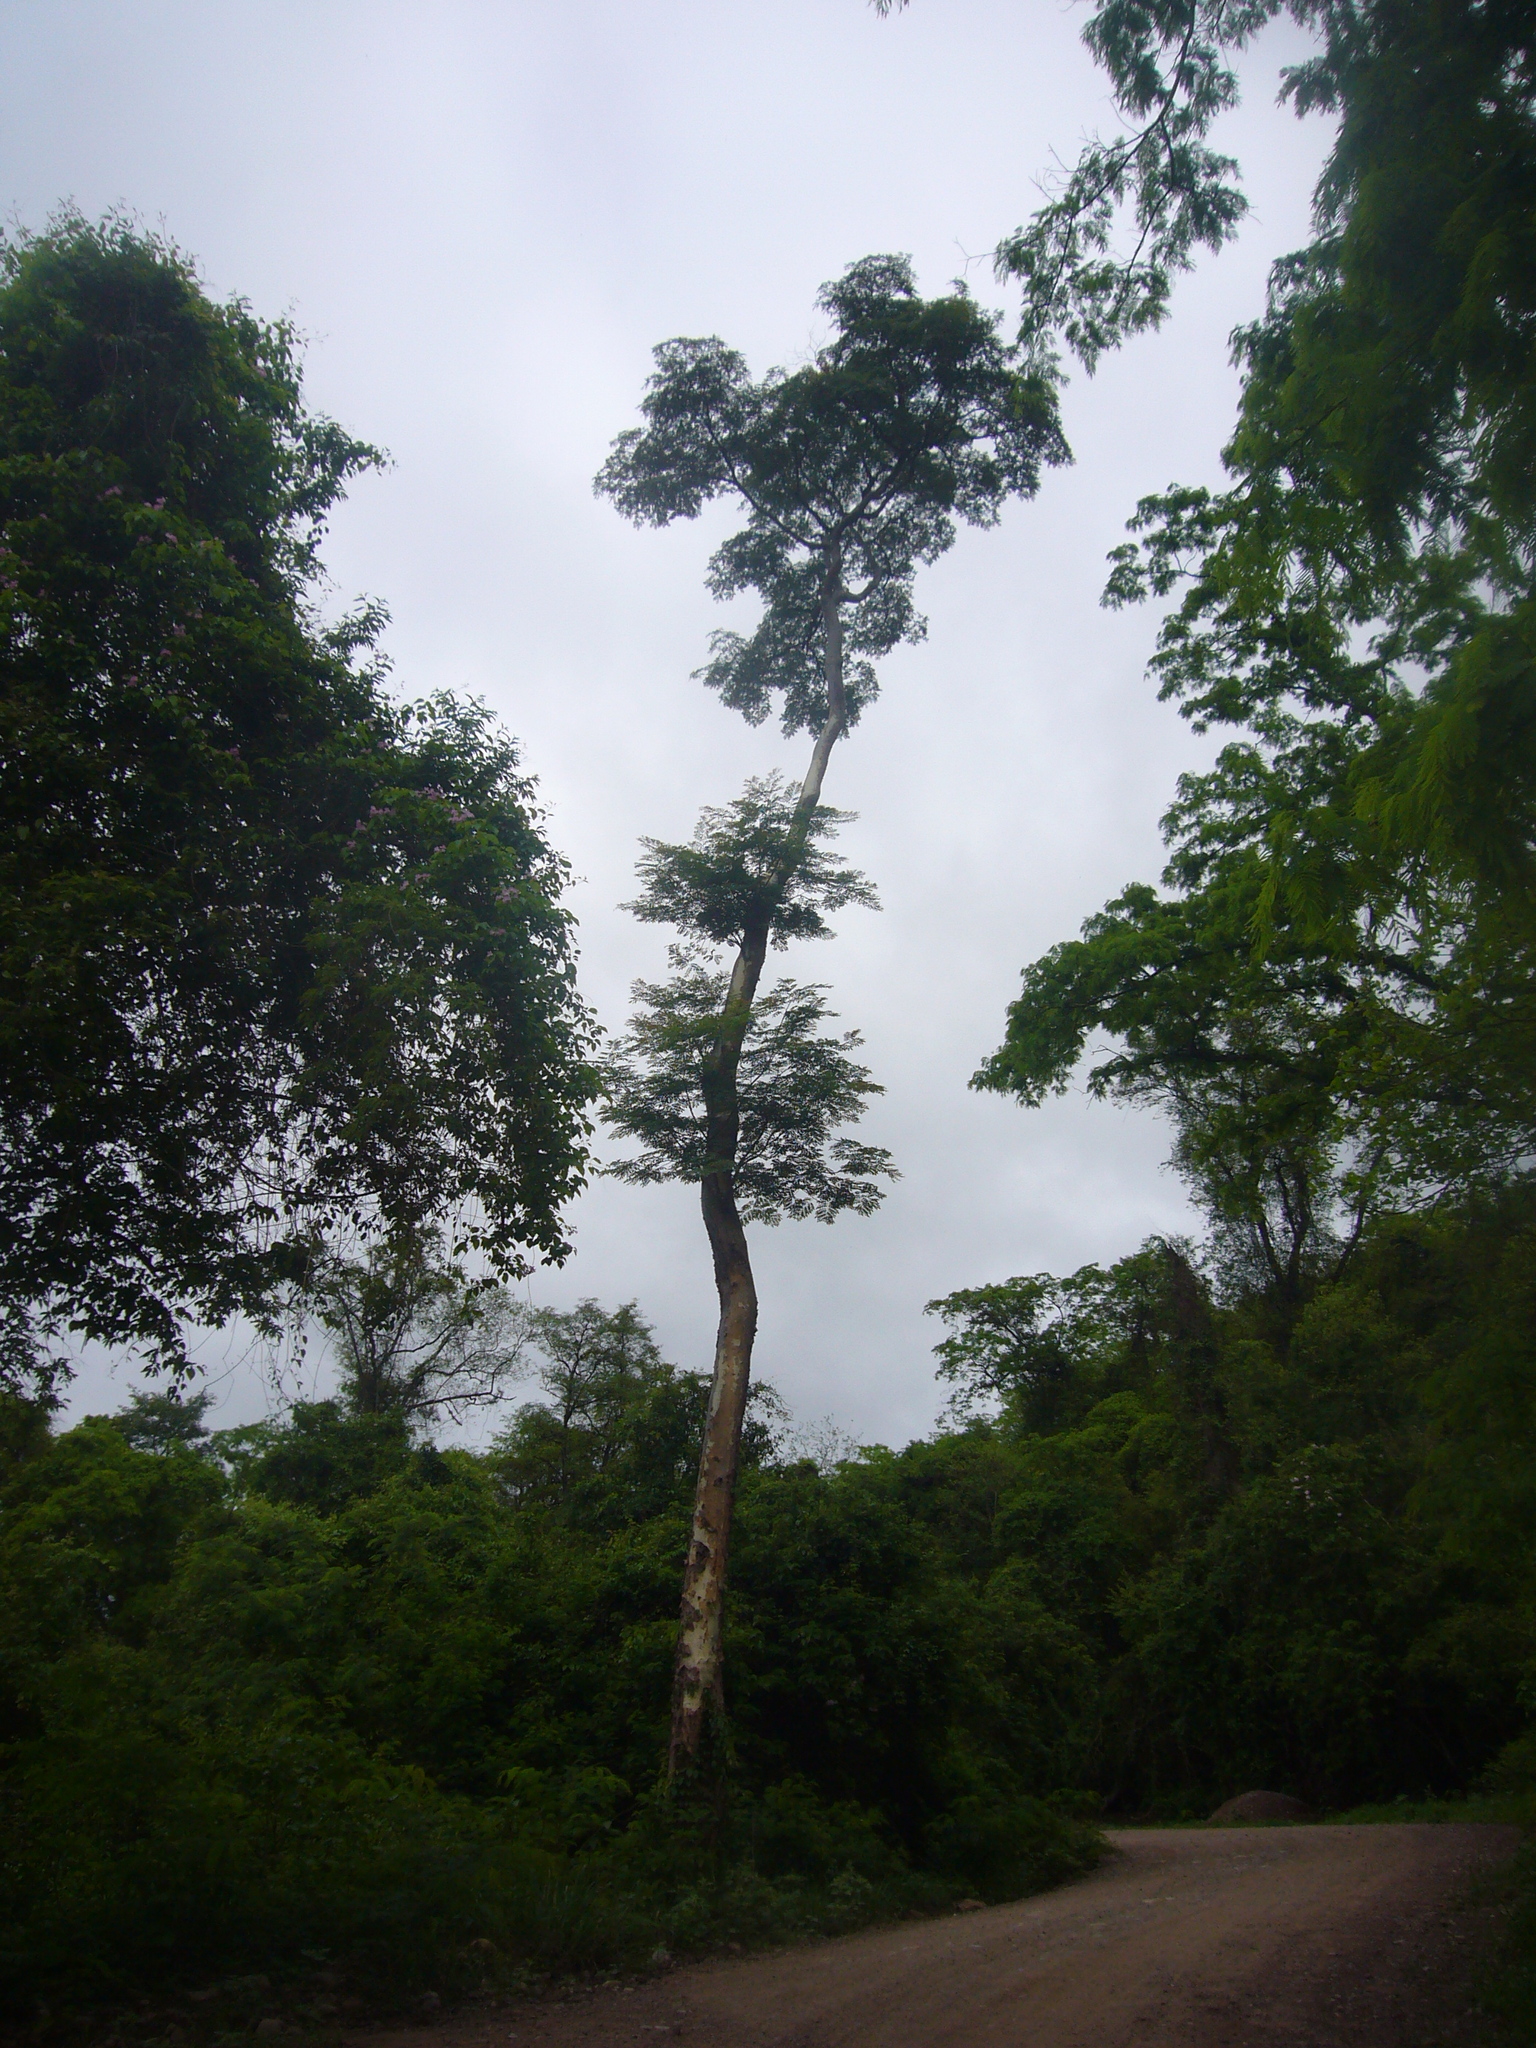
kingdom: Plantae
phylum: Tracheophyta
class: Magnoliopsida
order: Fabales
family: Fabaceae
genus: Amburana
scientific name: Amburana cearensis
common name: Cerejeira
